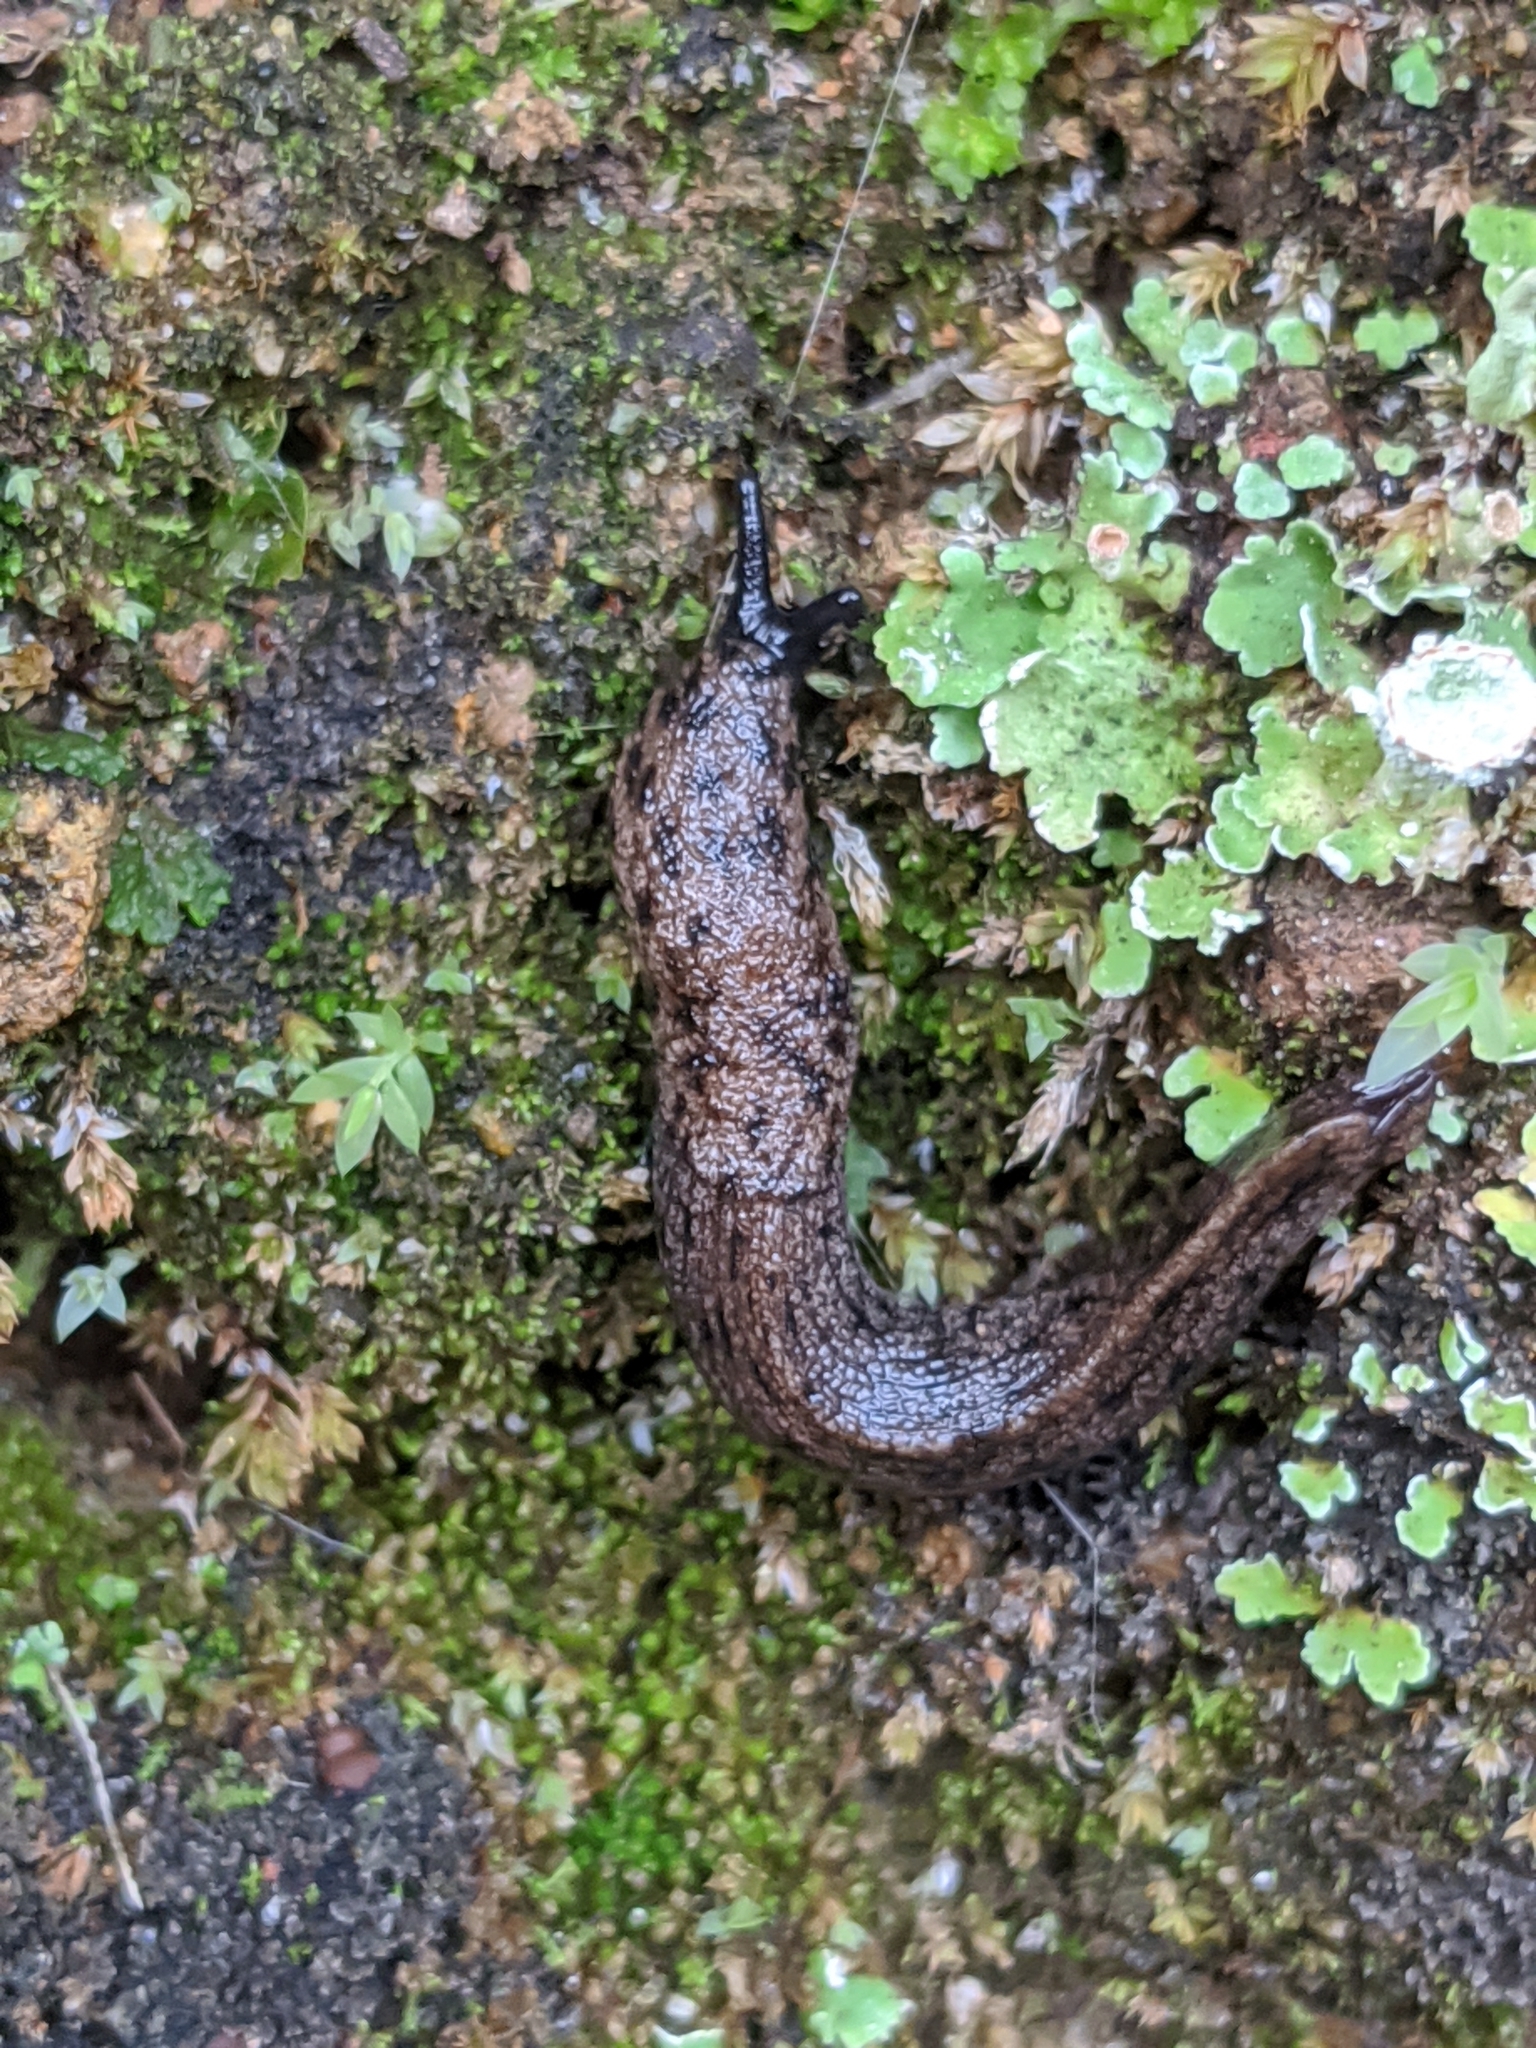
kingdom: Animalia
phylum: Mollusca
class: Gastropoda
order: Stylommatophora
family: Ariolimacidae
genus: Hesperarion
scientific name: Hesperarion niger
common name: Black western slug
